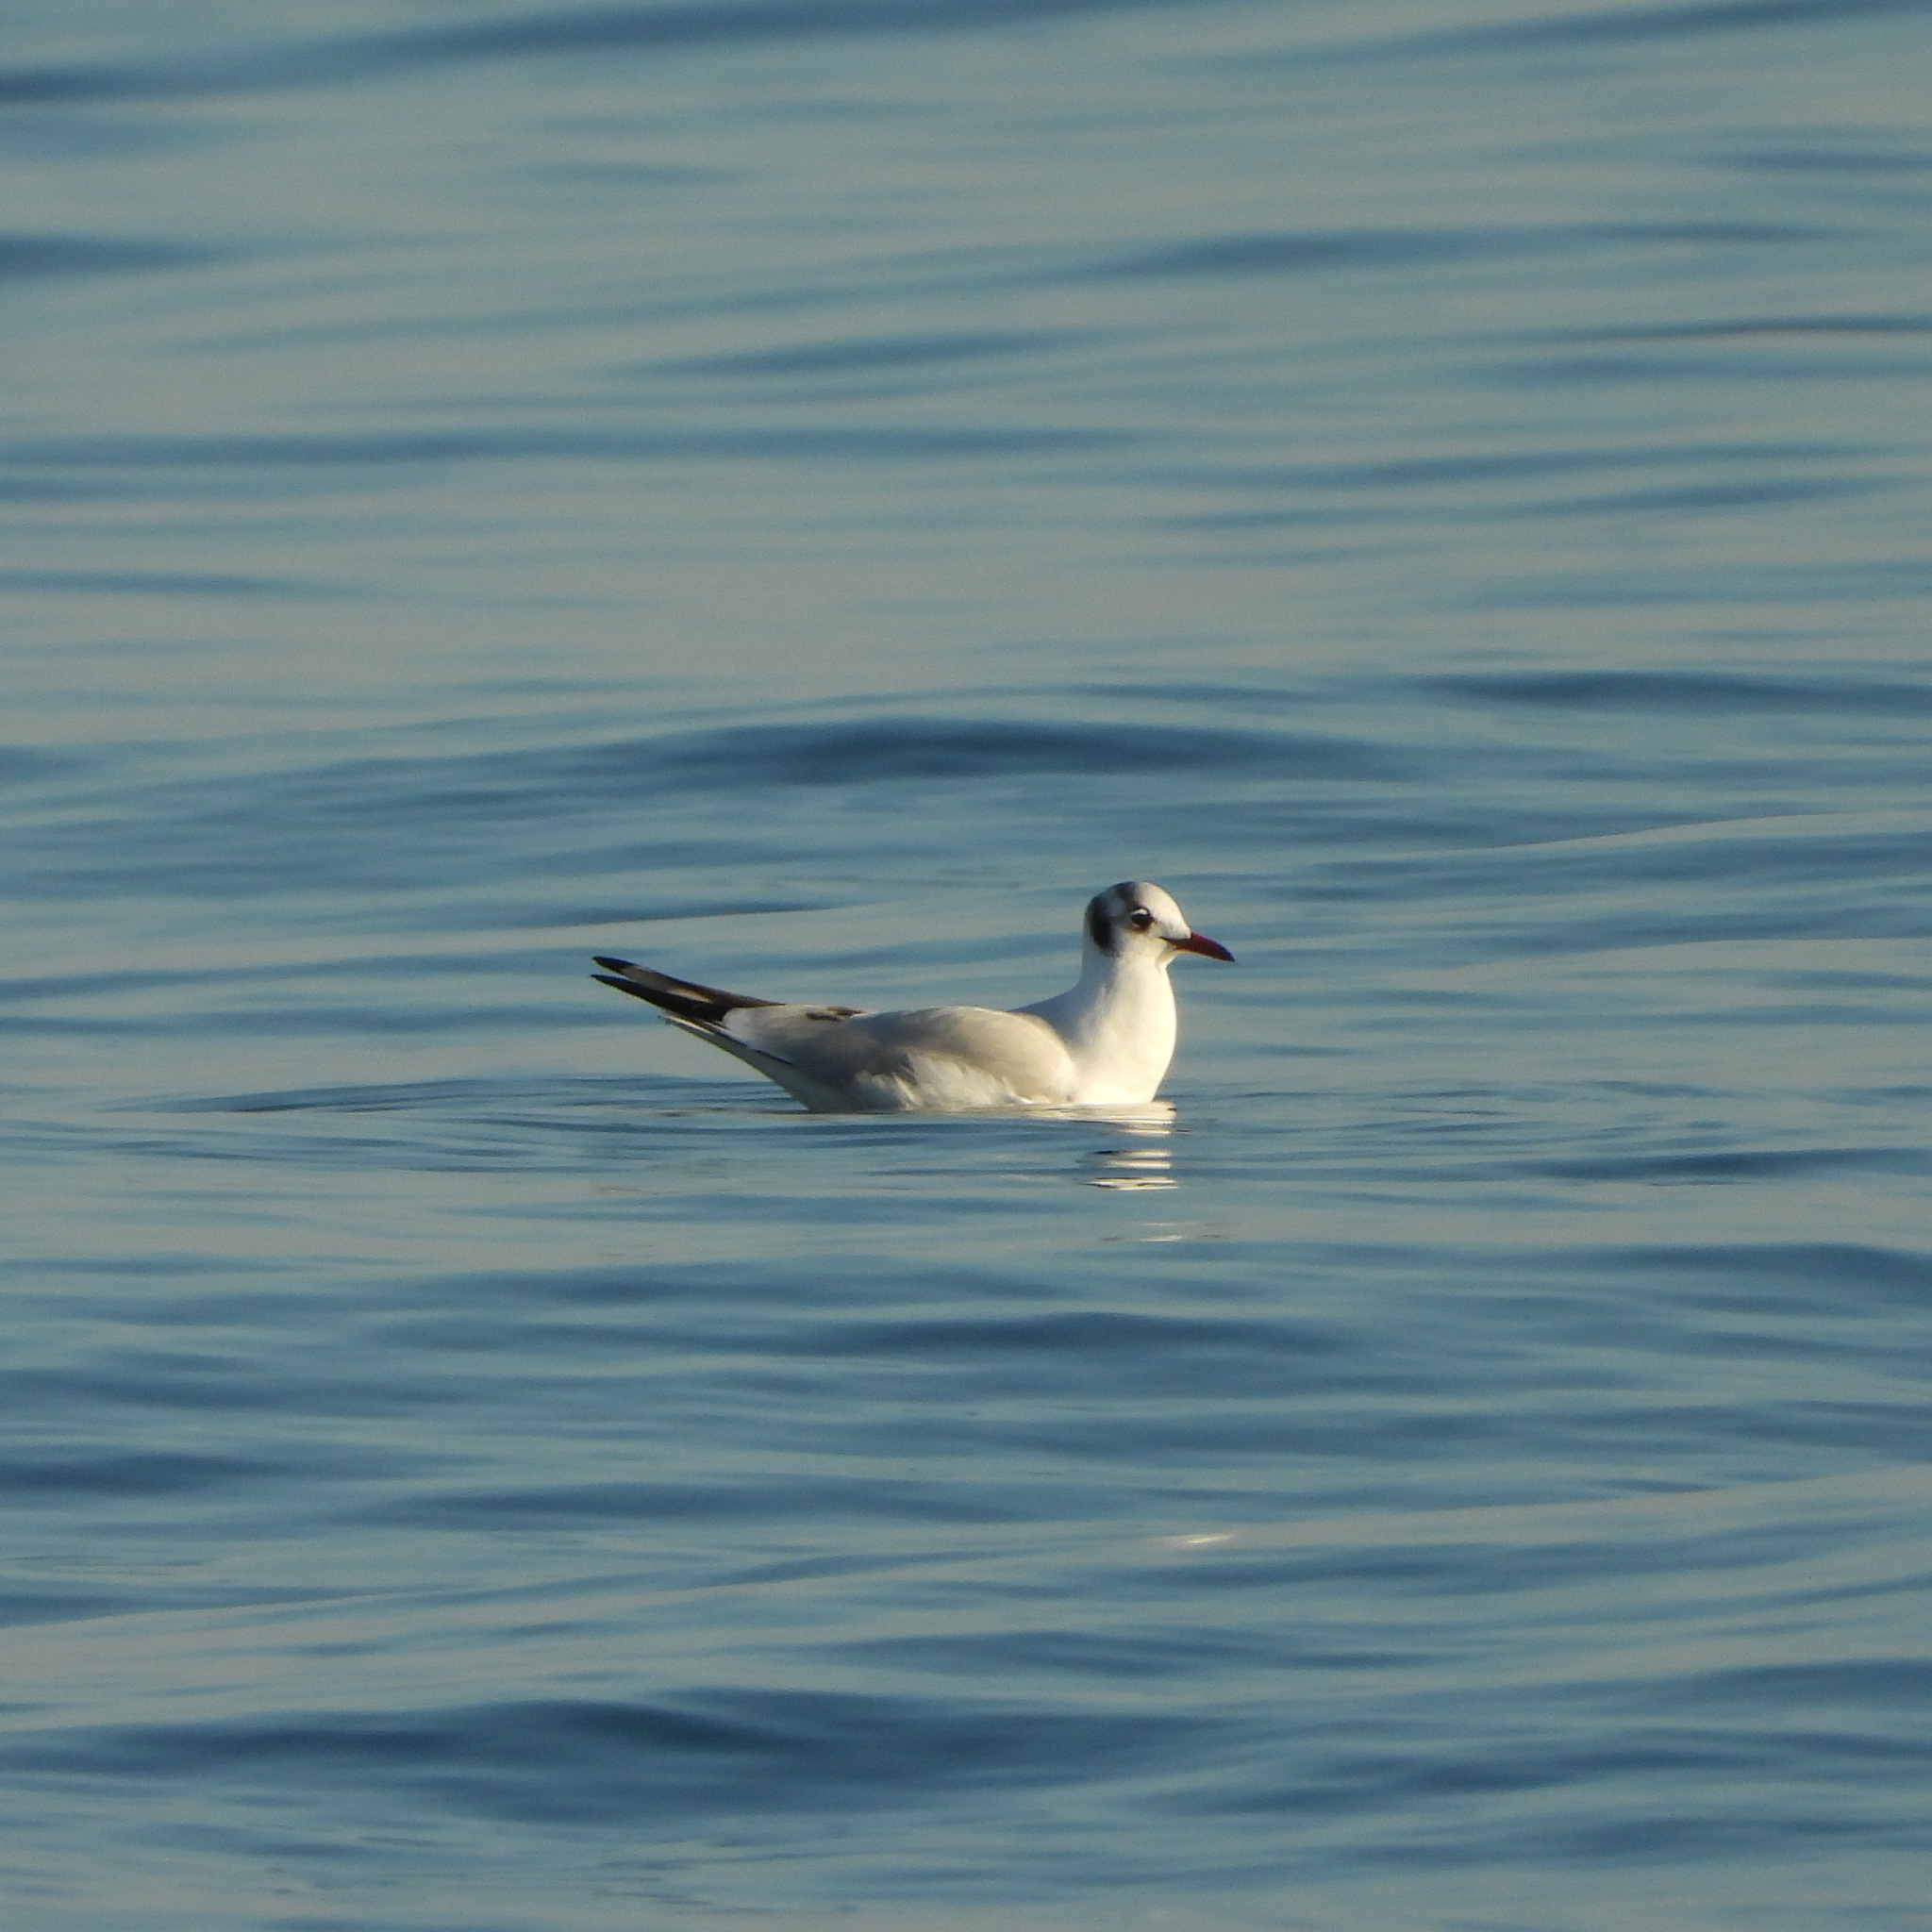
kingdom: Animalia
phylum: Chordata
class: Aves
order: Charadriiformes
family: Laridae
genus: Chroicocephalus
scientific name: Chroicocephalus ridibundus
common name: Black-headed gull
